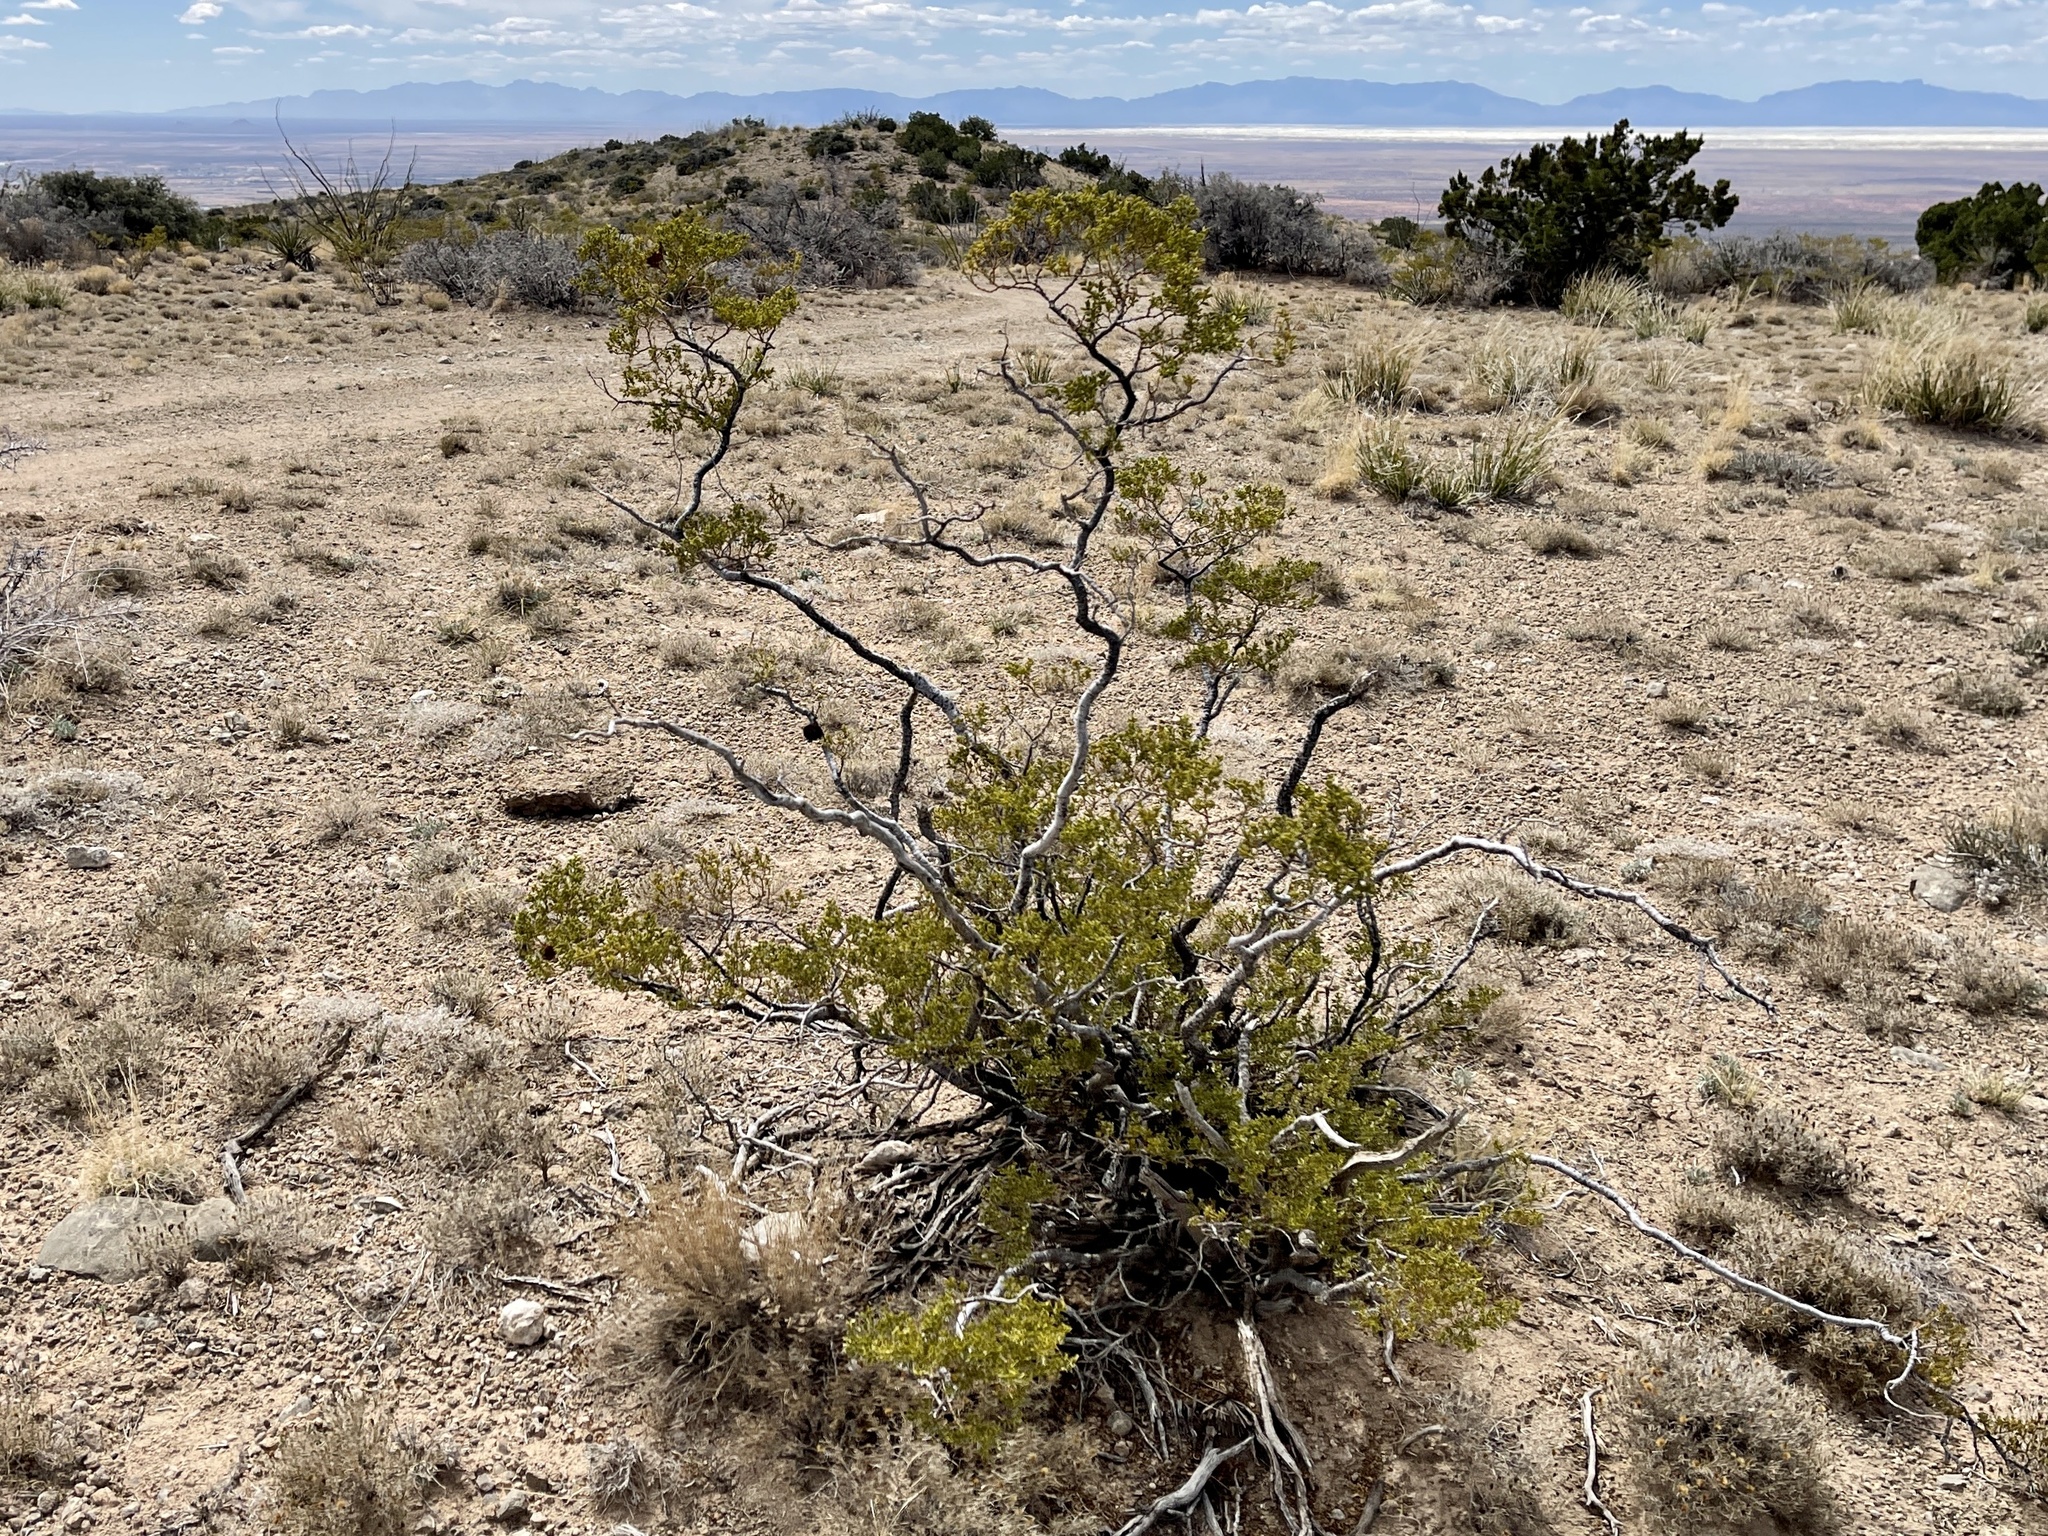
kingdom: Plantae
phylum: Tracheophyta
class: Magnoliopsida
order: Zygophyllales
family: Zygophyllaceae
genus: Larrea
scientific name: Larrea tridentata
